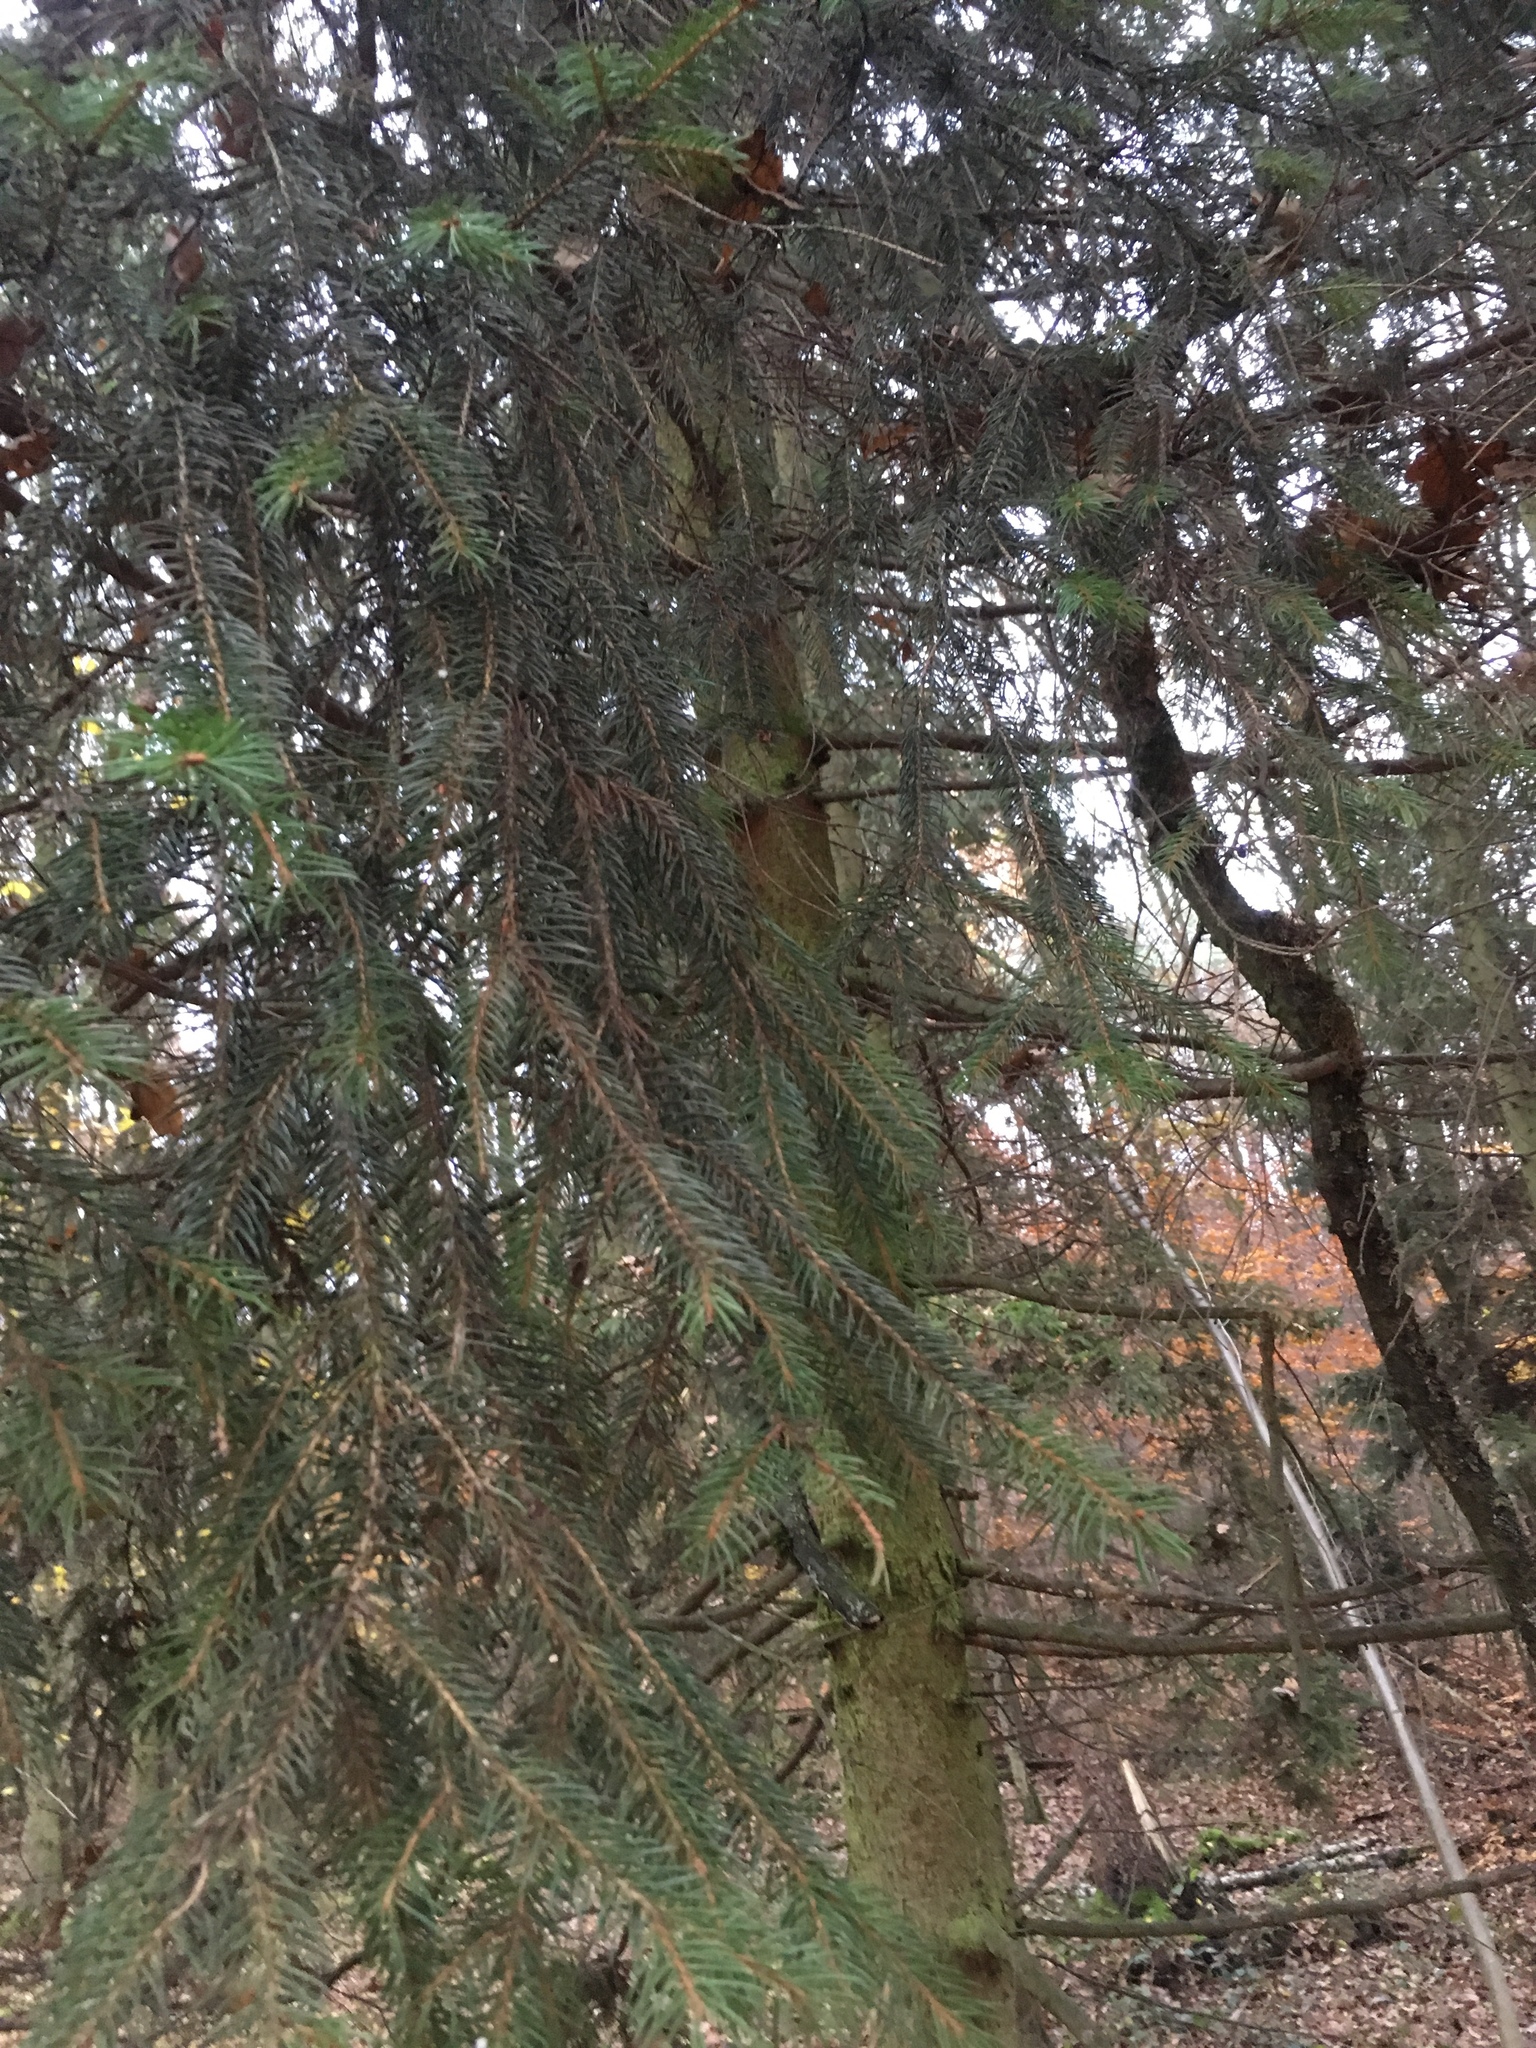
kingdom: Plantae
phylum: Tracheophyta
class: Pinopsida
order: Pinales
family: Pinaceae
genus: Picea
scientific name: Picea abies
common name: Norway spruce
